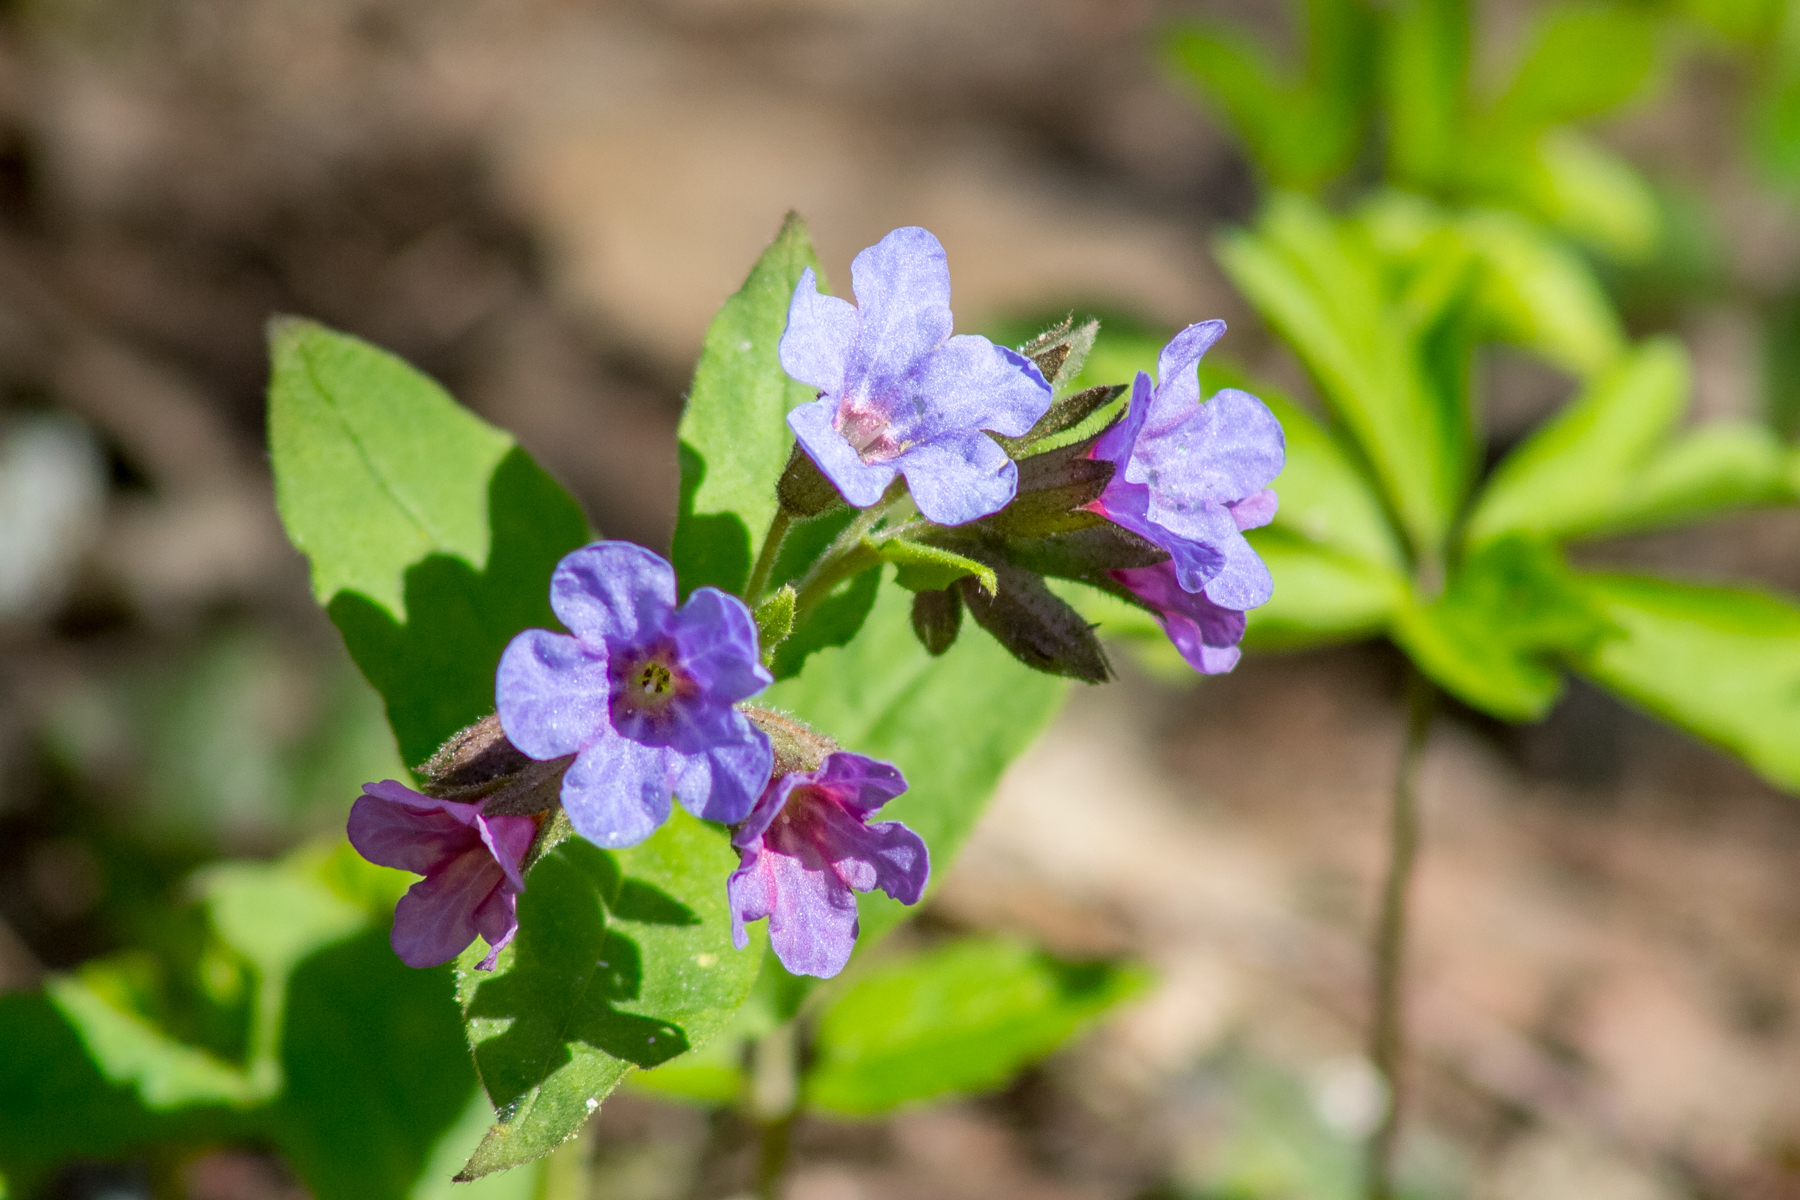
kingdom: Plantae
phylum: Tracheophyta
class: Magnoliopsida
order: Boraginales
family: Boraginaceae
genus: Pulmonaria
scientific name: Pulmonaria obscura
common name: Suffolk lungwort
